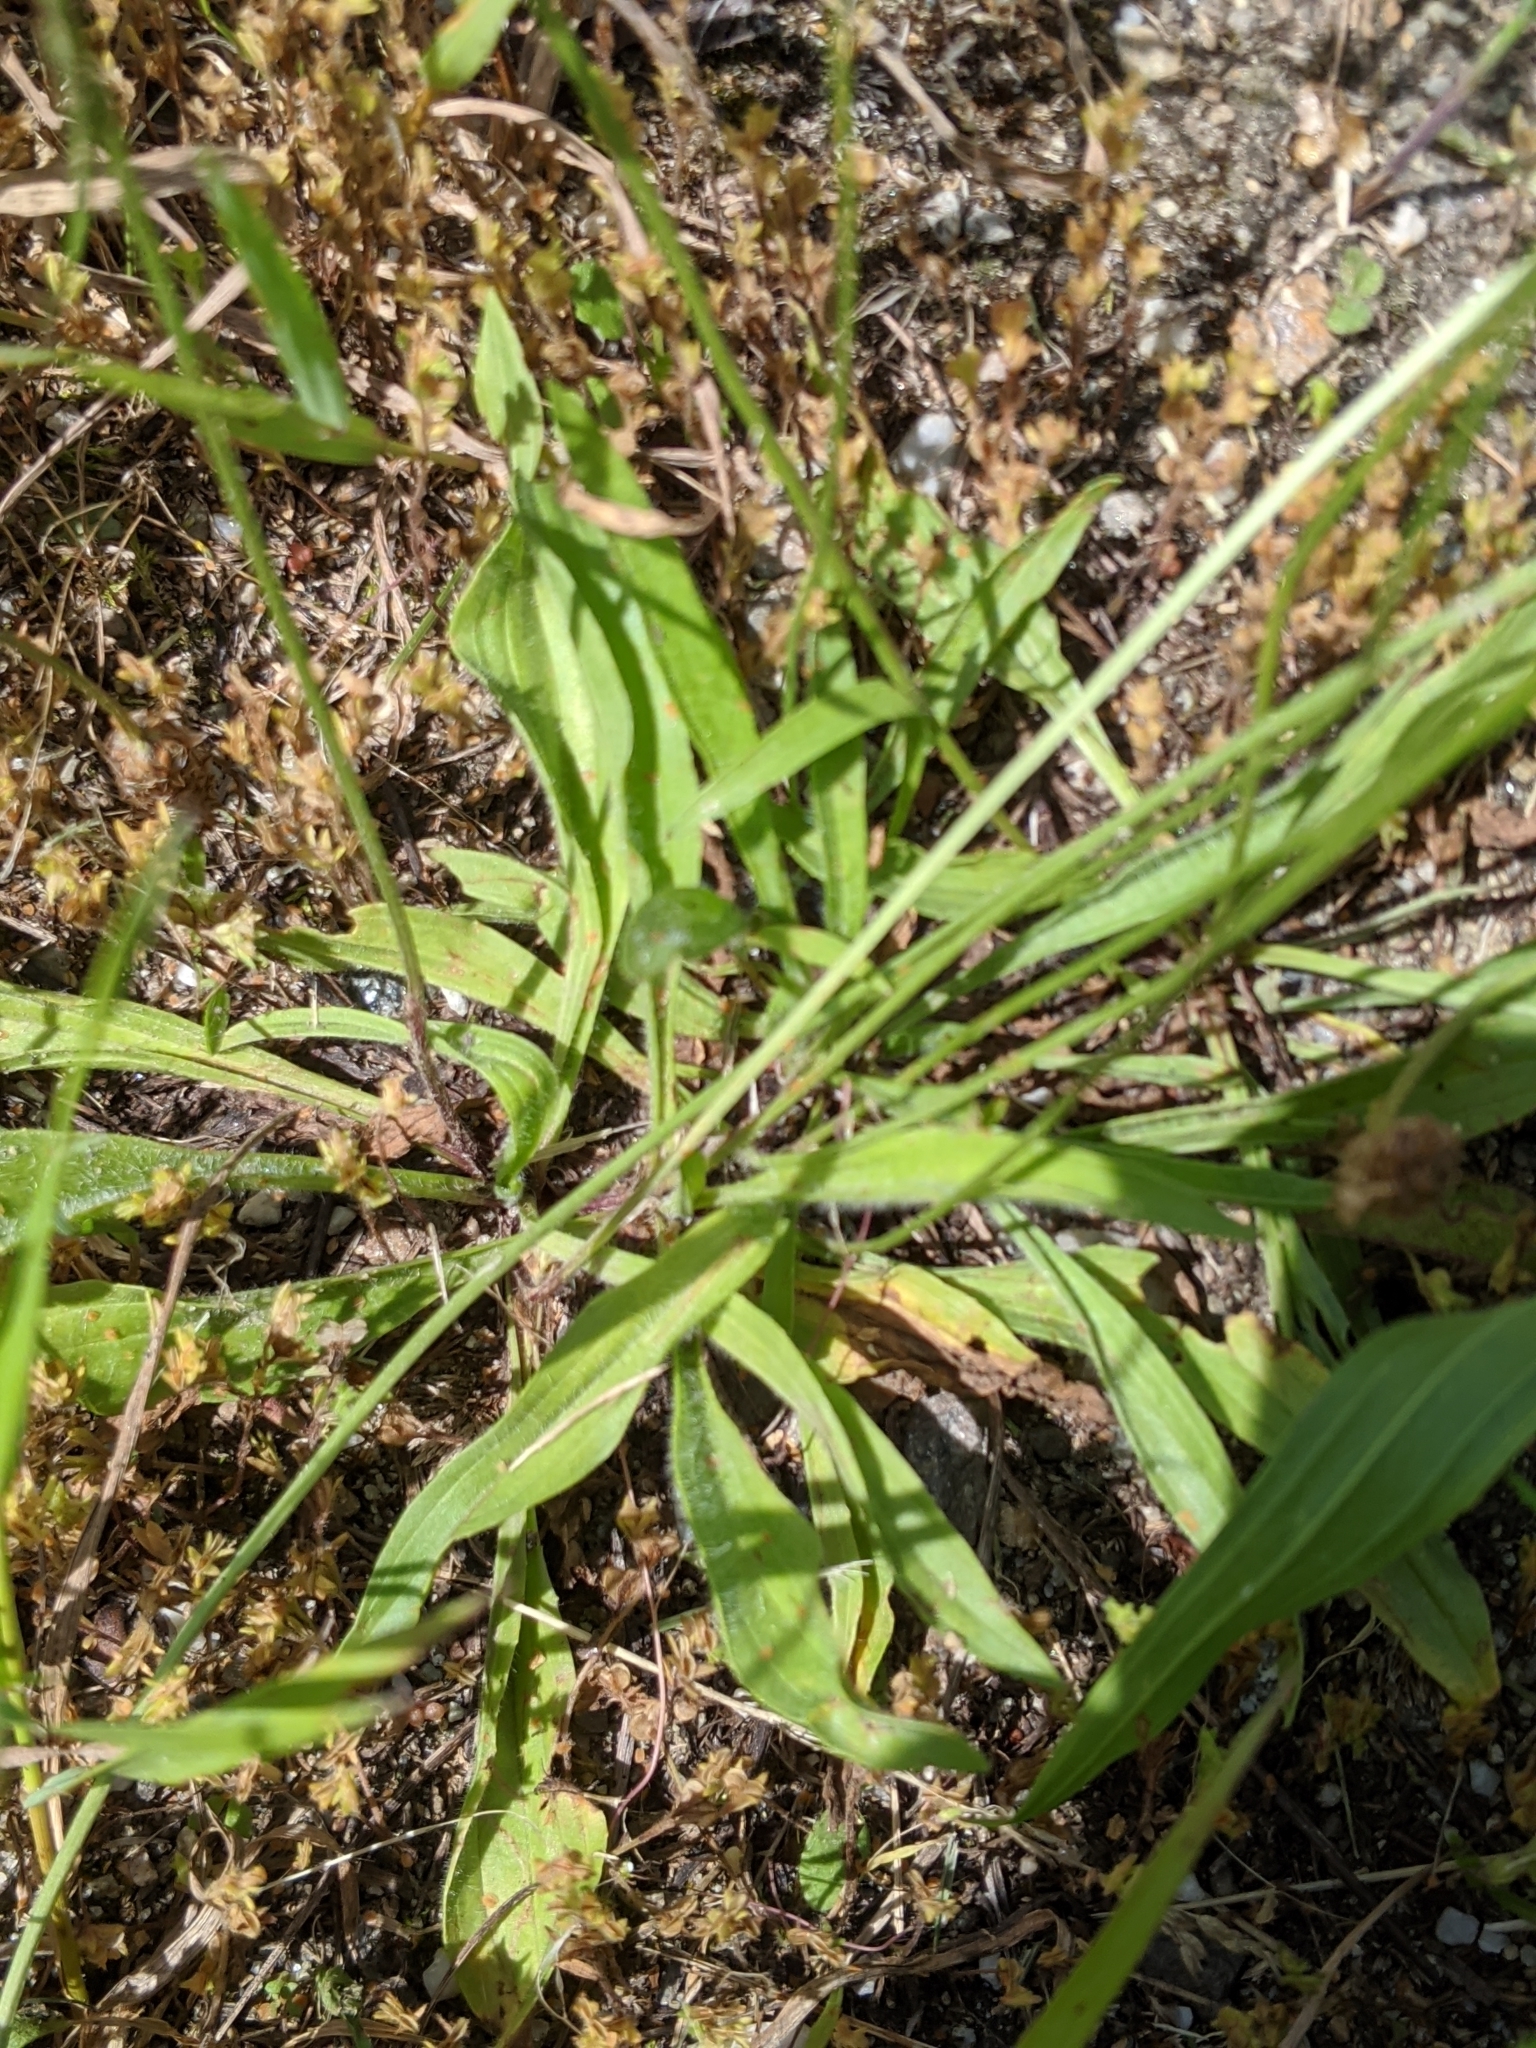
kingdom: Plantae
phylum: Tracheophyta
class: Magnoliopsida
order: Lamiales
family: Plantaginaceae
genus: Plantago
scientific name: Plantago lanceolata
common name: Ribwort plantain
